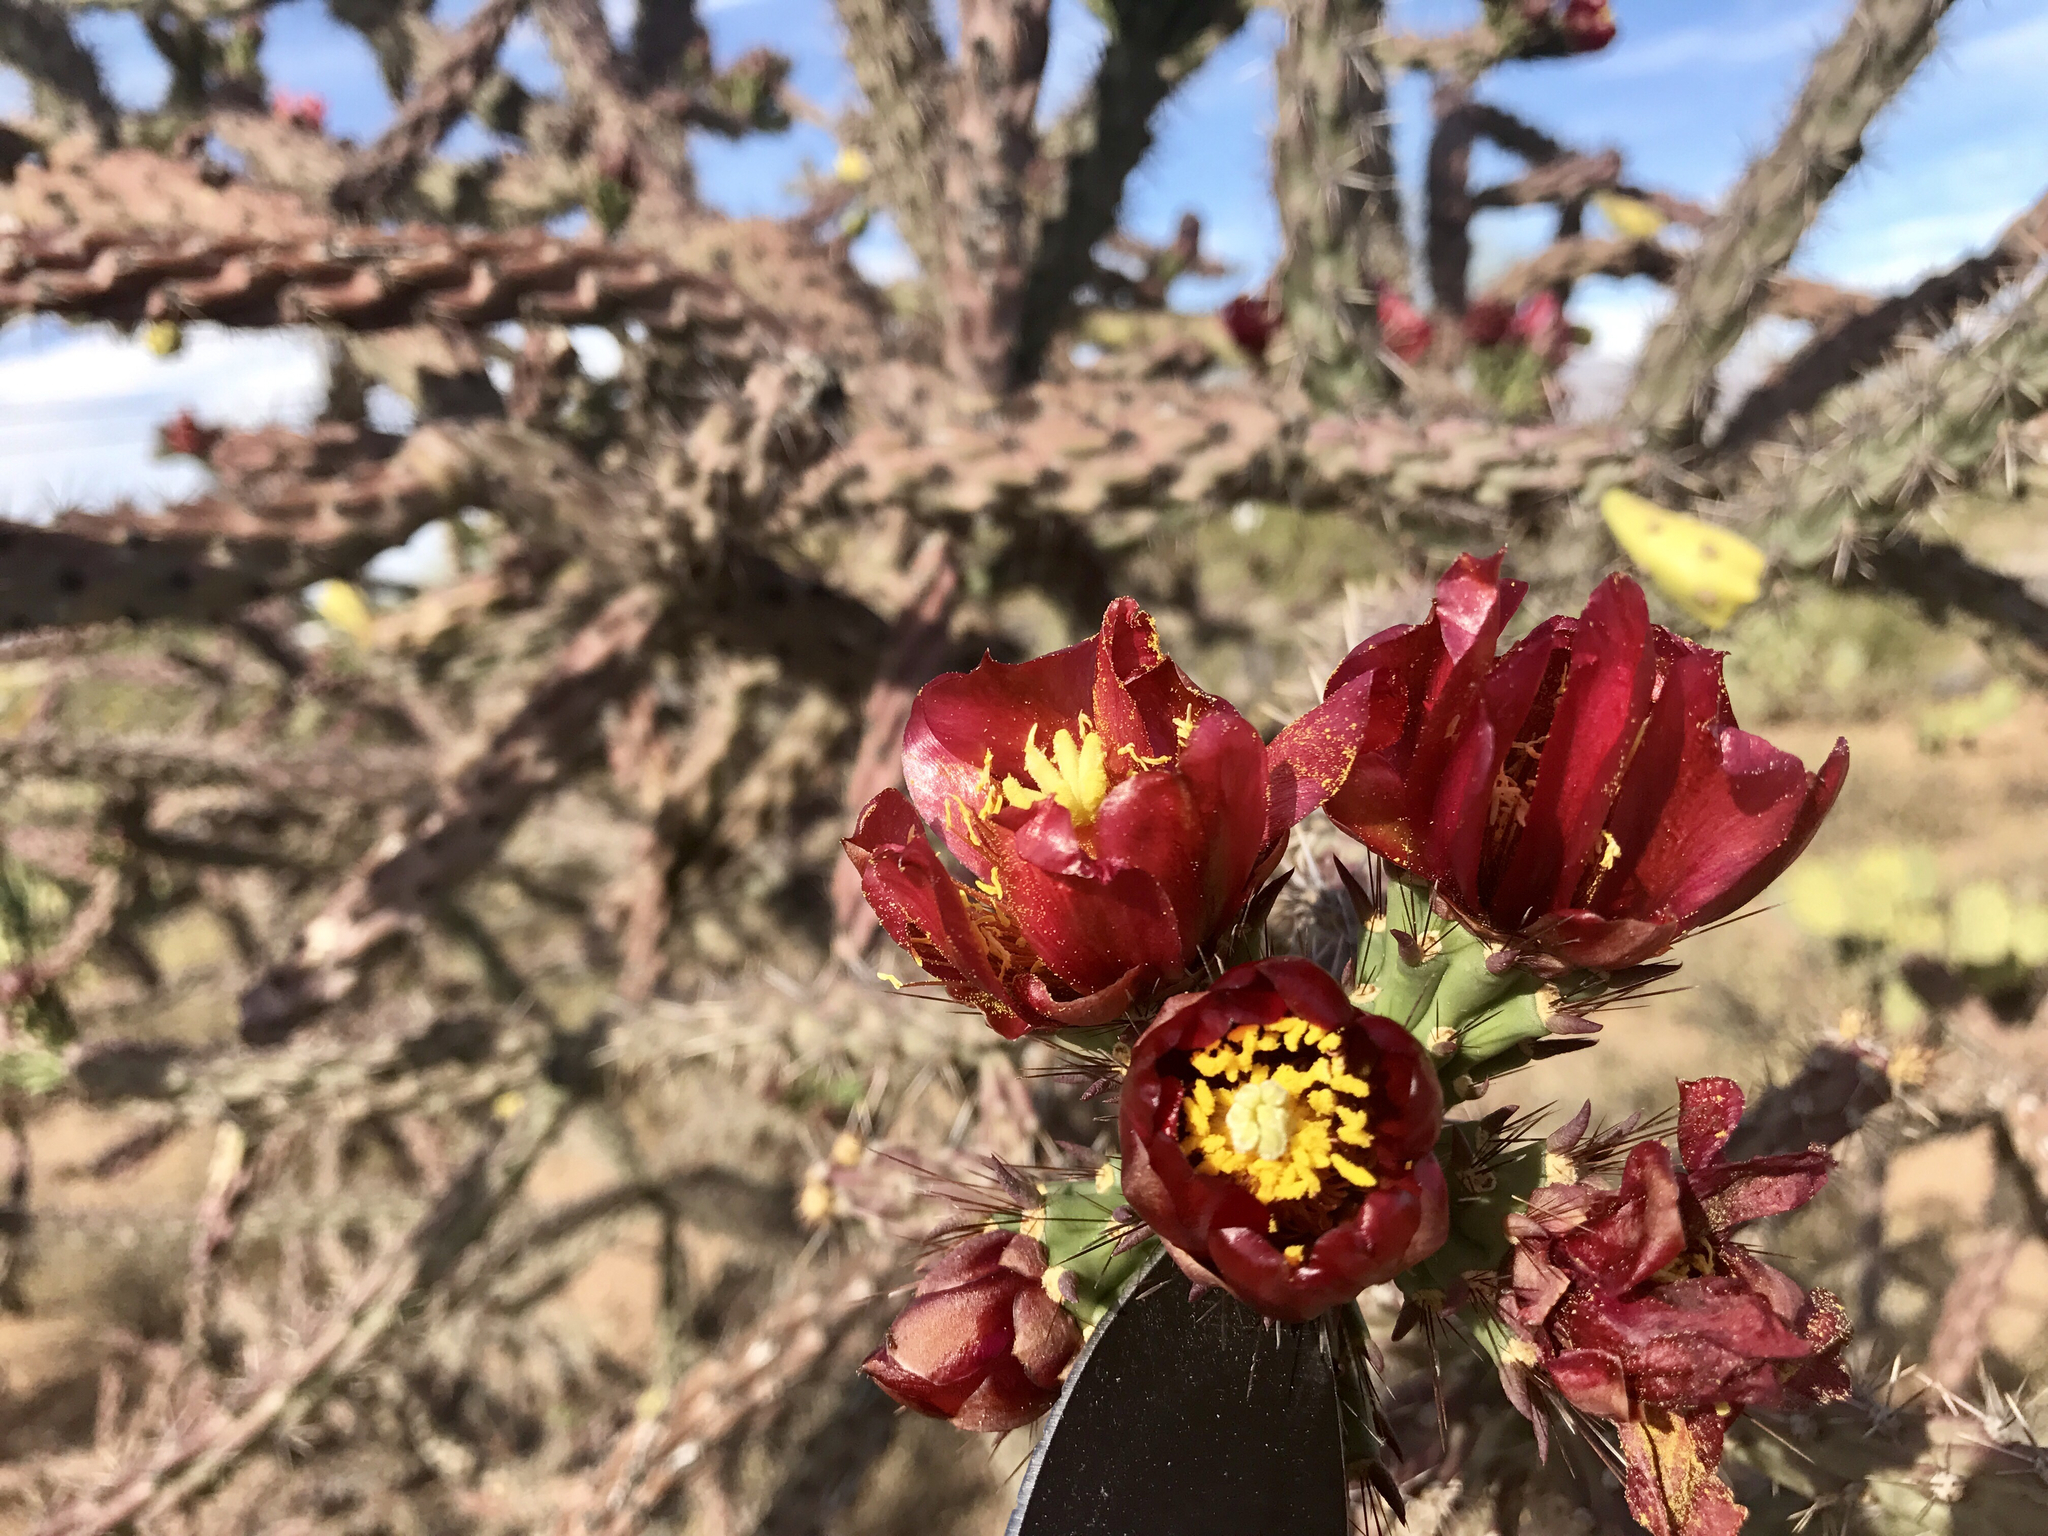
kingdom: Plantae
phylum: Tracheophyta
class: Magnoliopsida
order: Caryophyllales
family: Cactaceae
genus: Cylindropuntia
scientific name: Cylindropuntia acanthocarpa
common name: Buckhorn cholla
